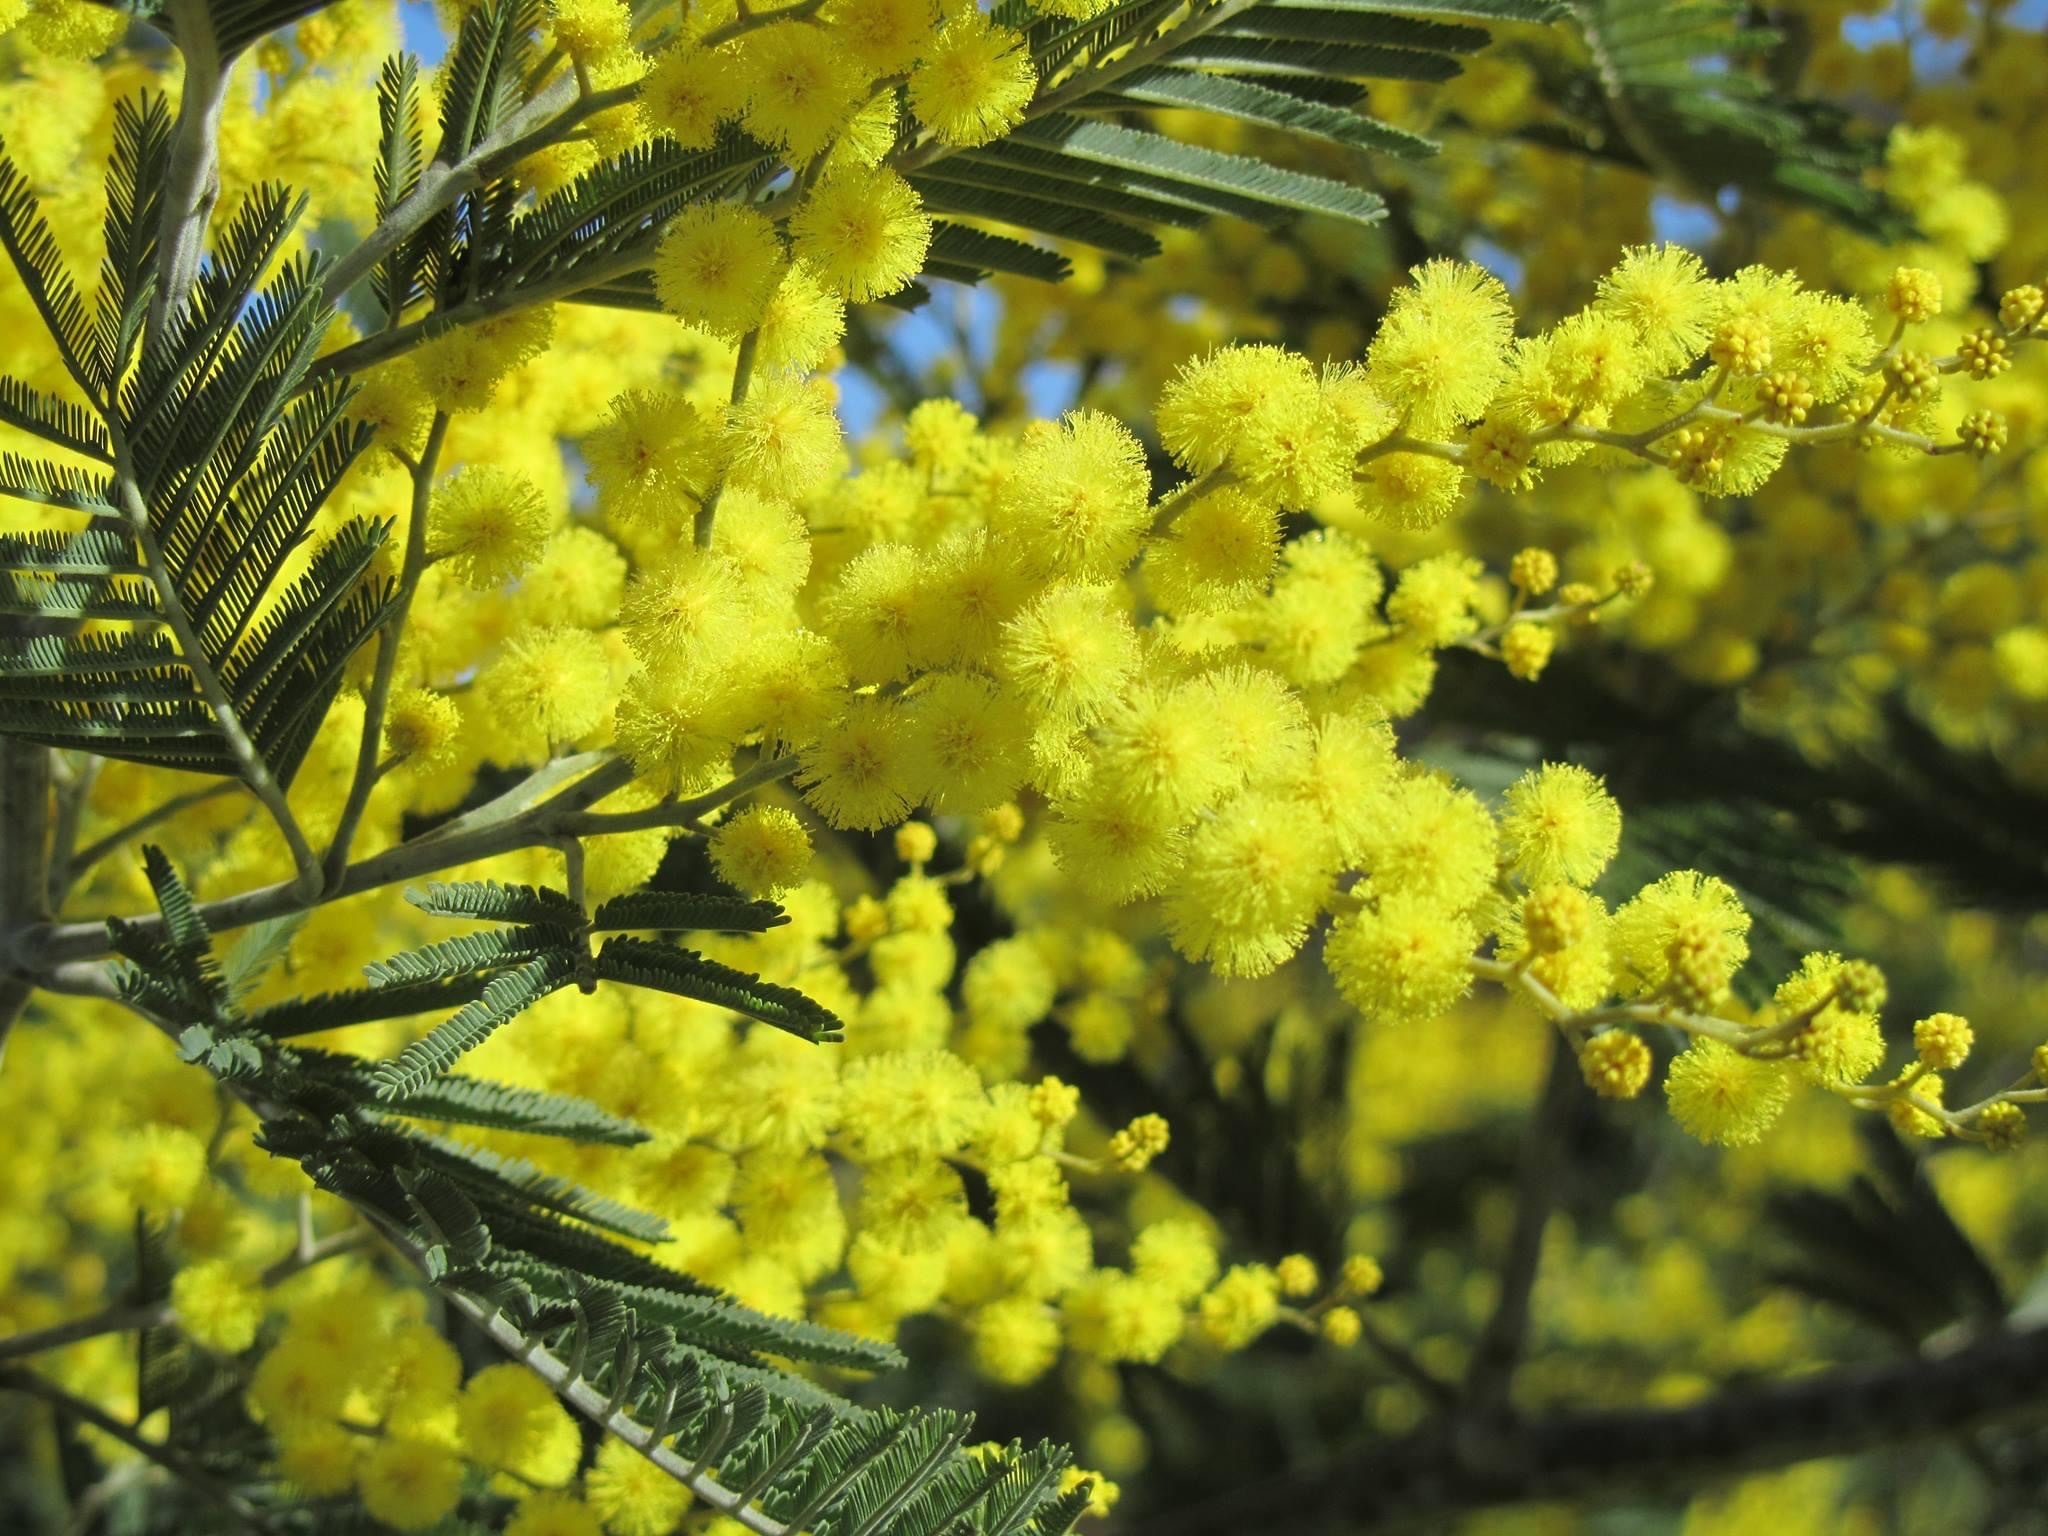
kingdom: Plantae
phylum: Tracheophyta
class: Magnoliopsida
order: Fabales
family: Fabaceae
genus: Acacia
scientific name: Acacia dealbata
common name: Silver wattle
